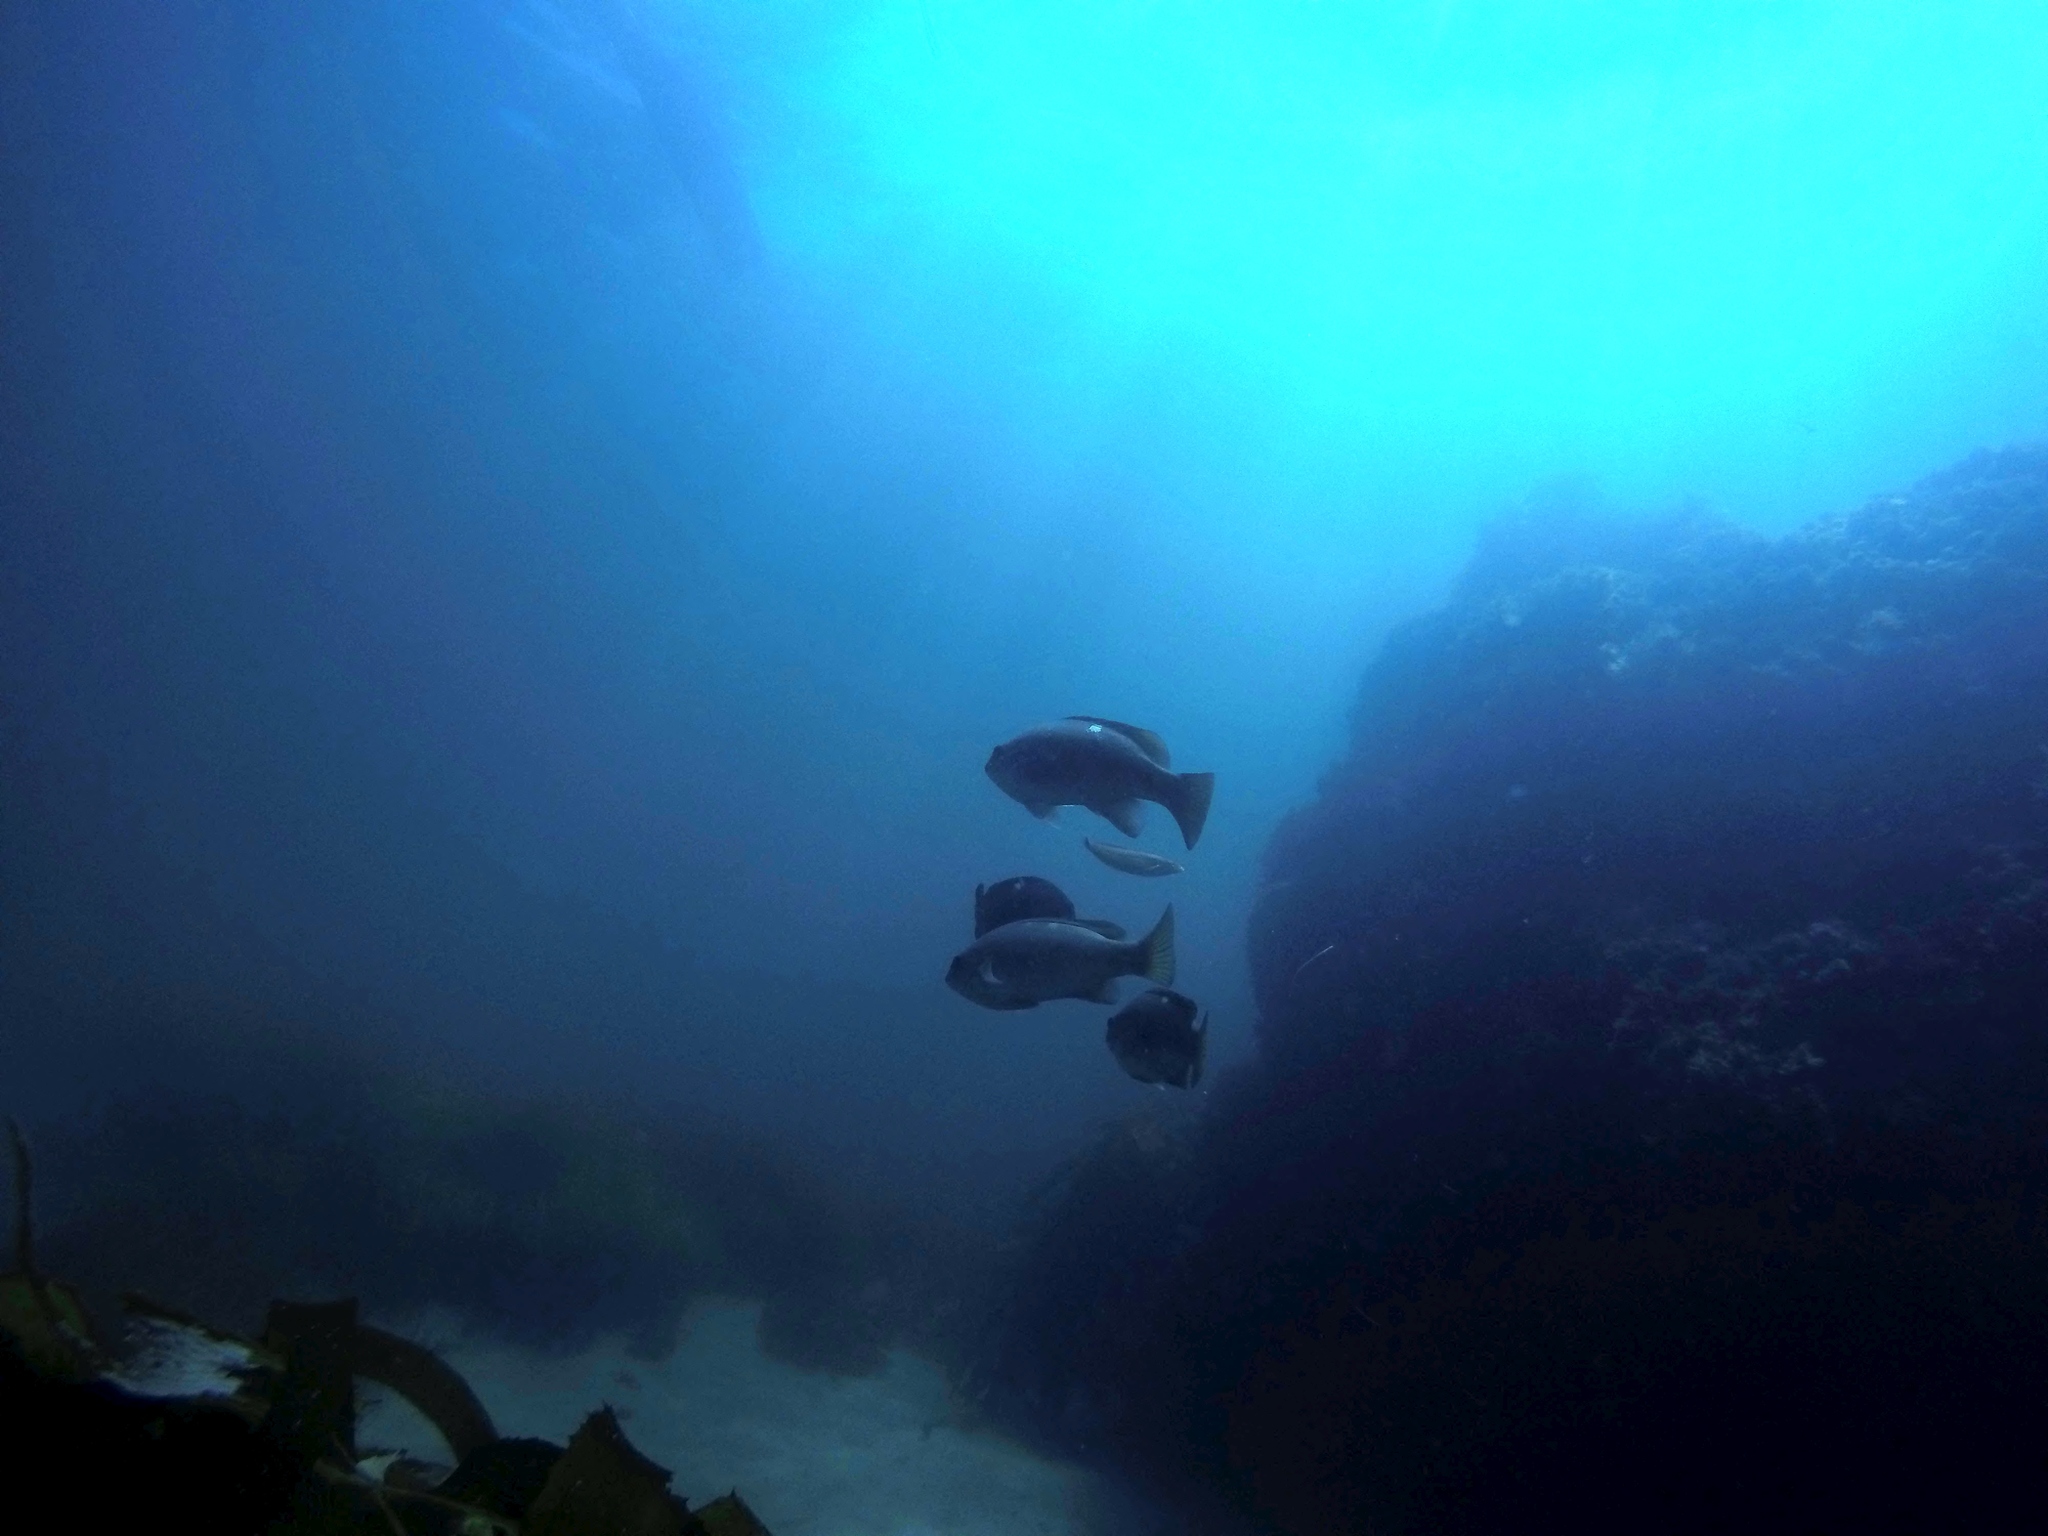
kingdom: Animalia
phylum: Chordata
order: Perciformes
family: Kyphosidae
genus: Girella
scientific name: Girella nigricans
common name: Opaleye
